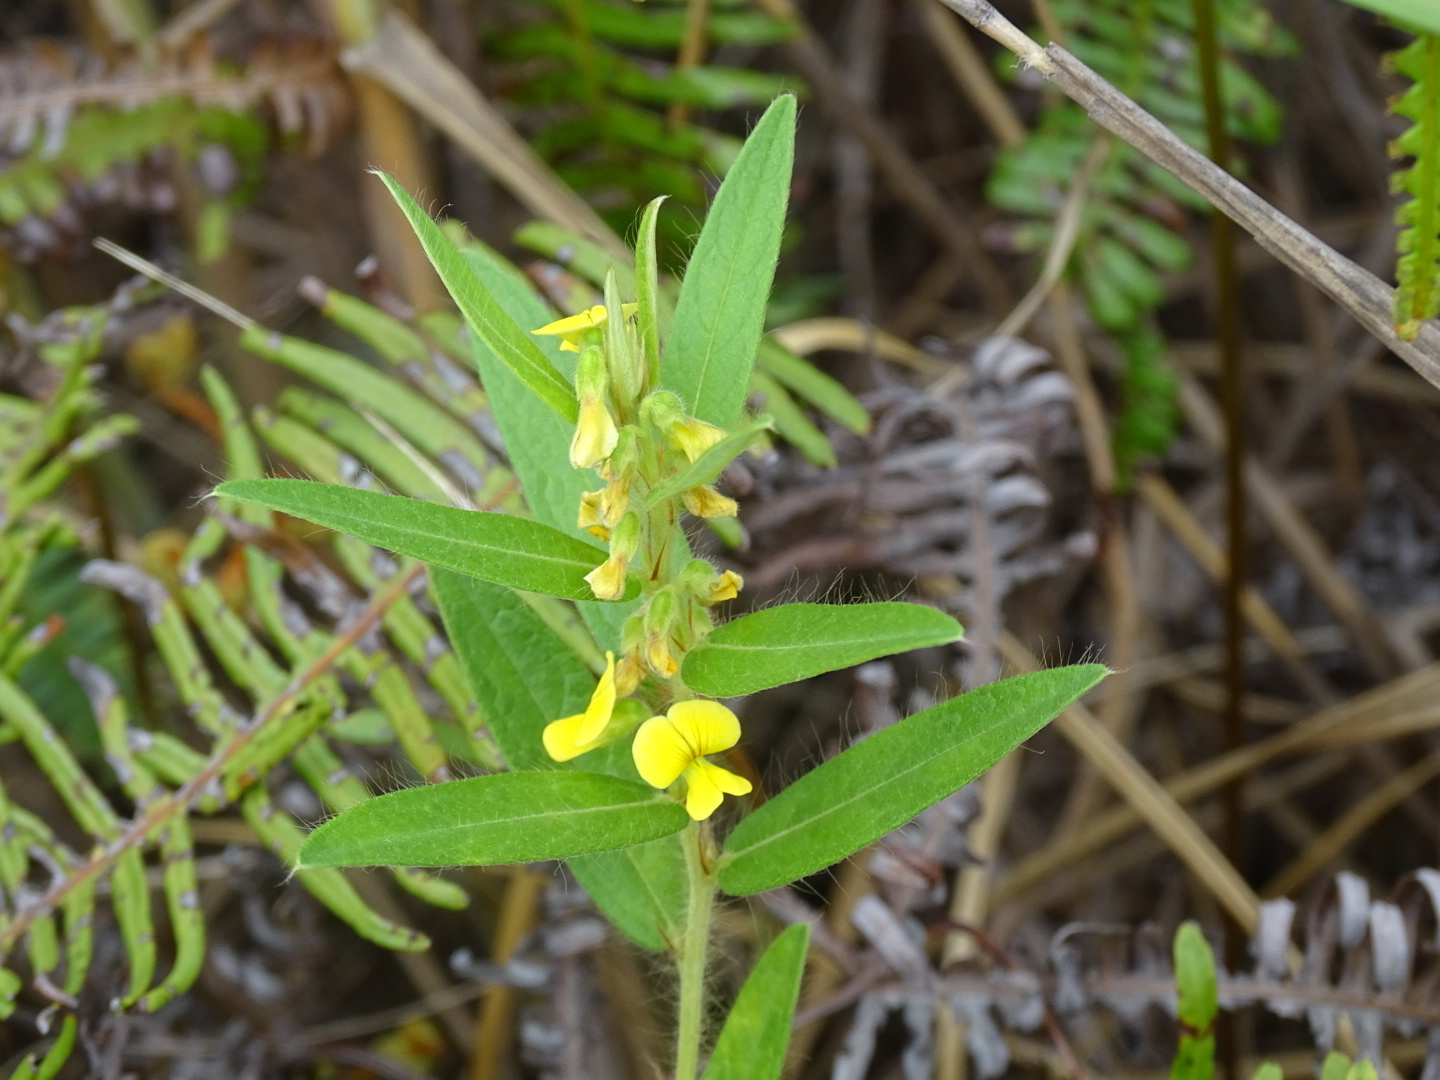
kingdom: Plantae
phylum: Tracheophyta
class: Magnoliopsida
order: Fabales
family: Fabaceae
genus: Eriosema
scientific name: Eriosema chinense
